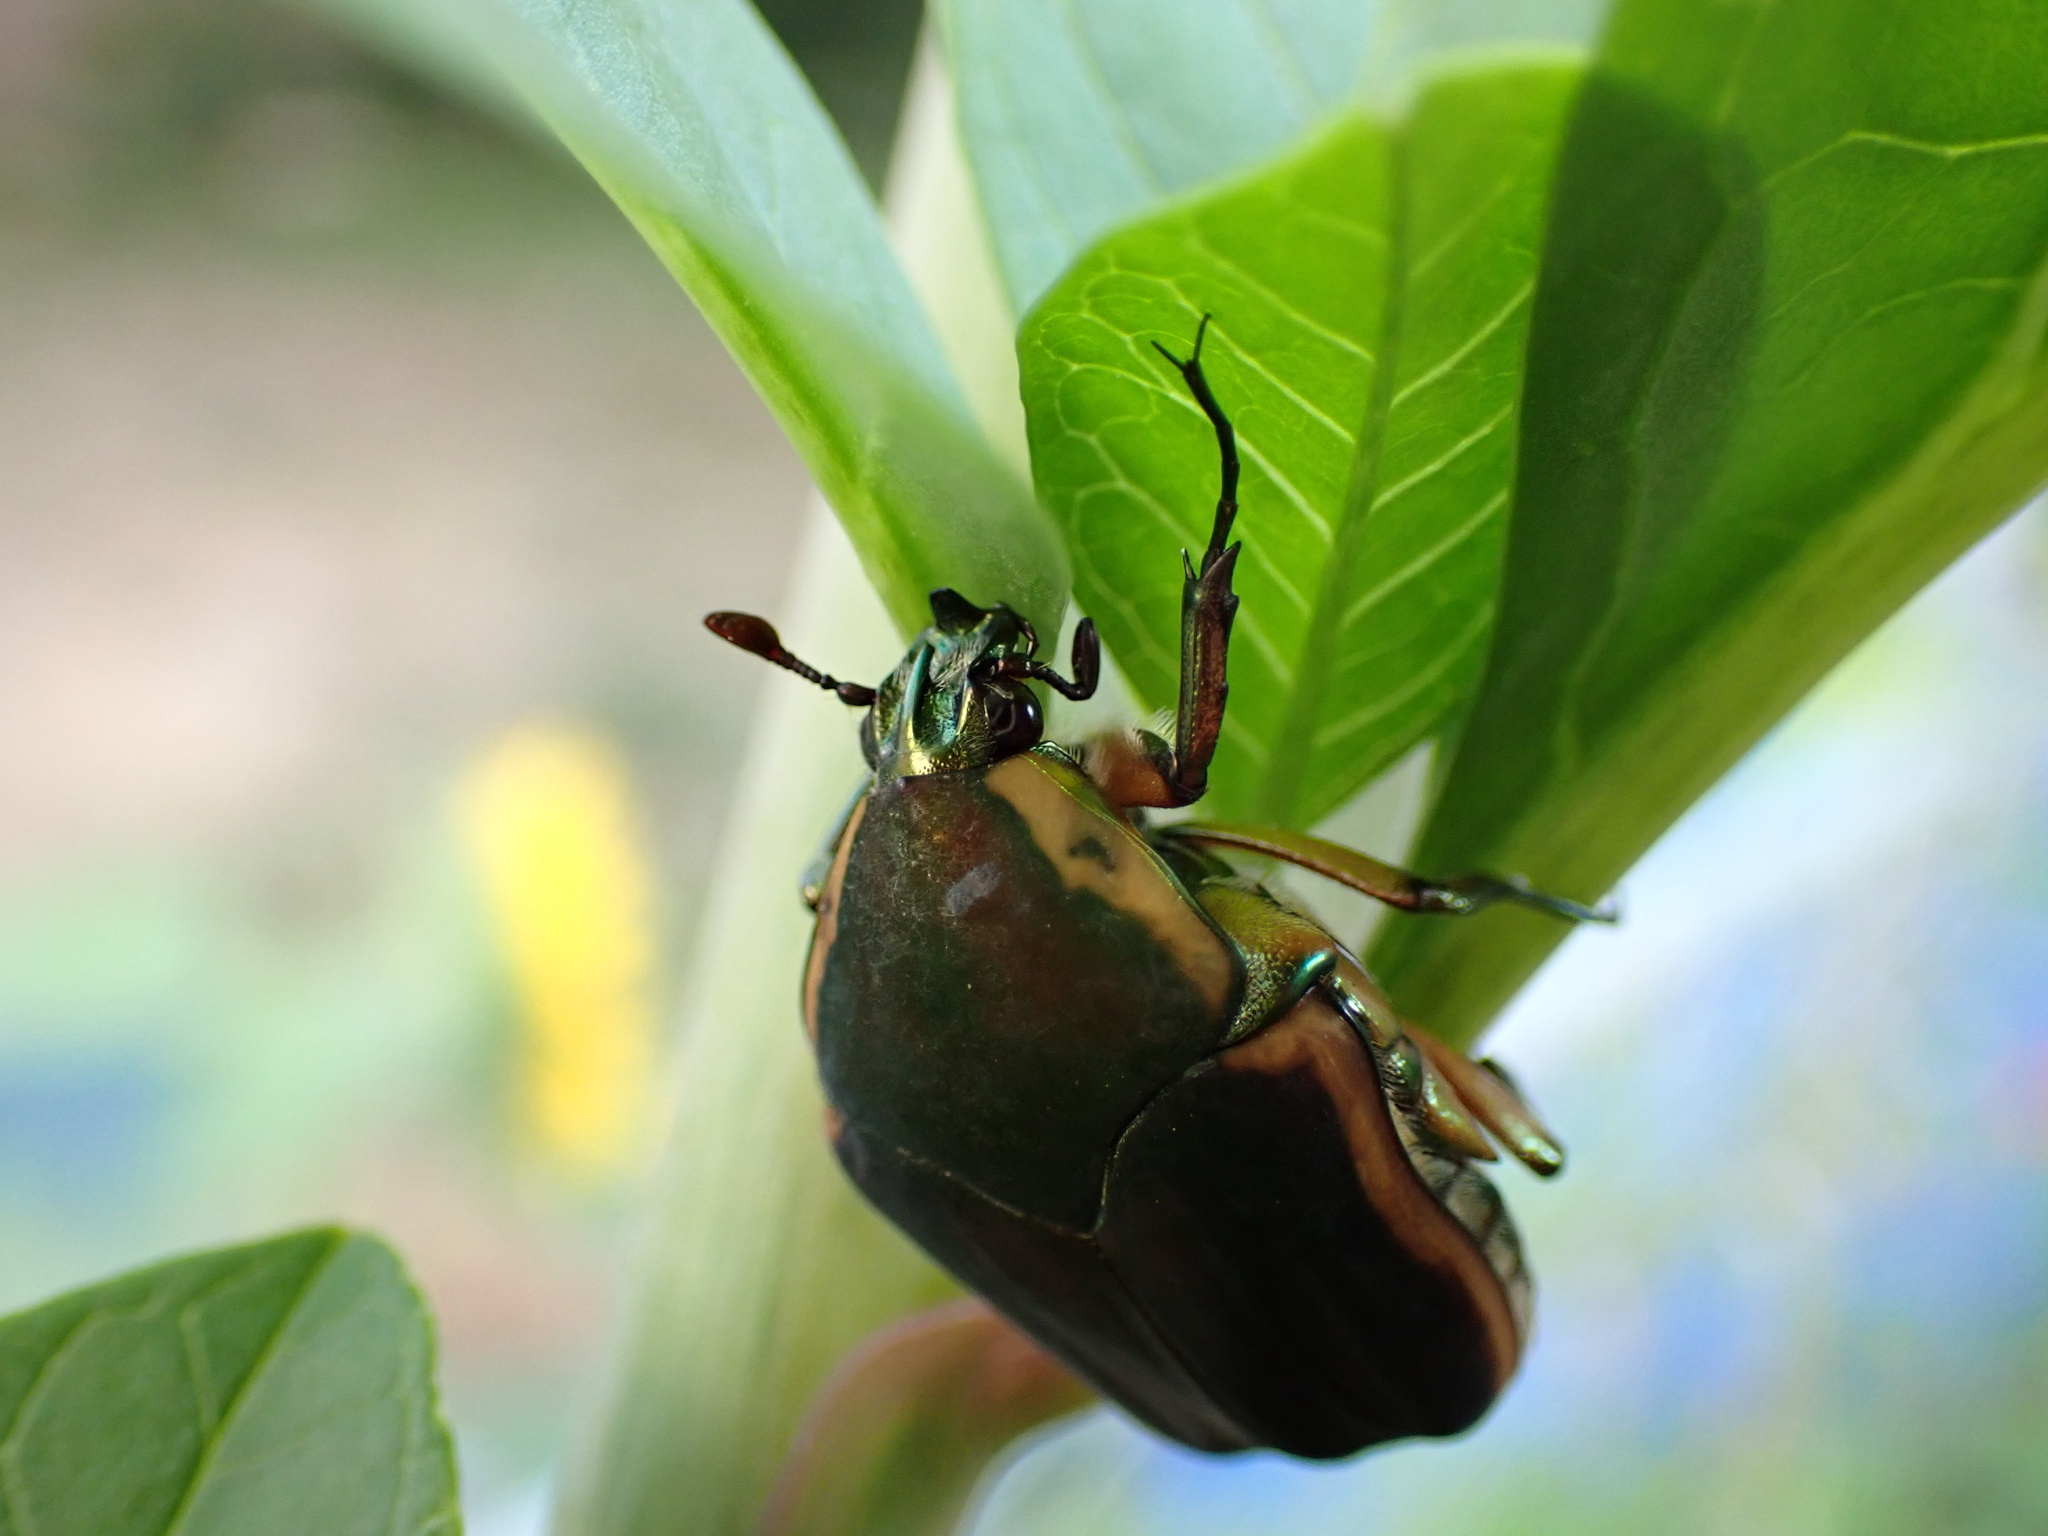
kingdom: Animalia
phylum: Arthropoda
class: Insecta
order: Coleoptera
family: Scarabaeidae
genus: Cotinis
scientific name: Cotinis nitida
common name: Common green june beetle
